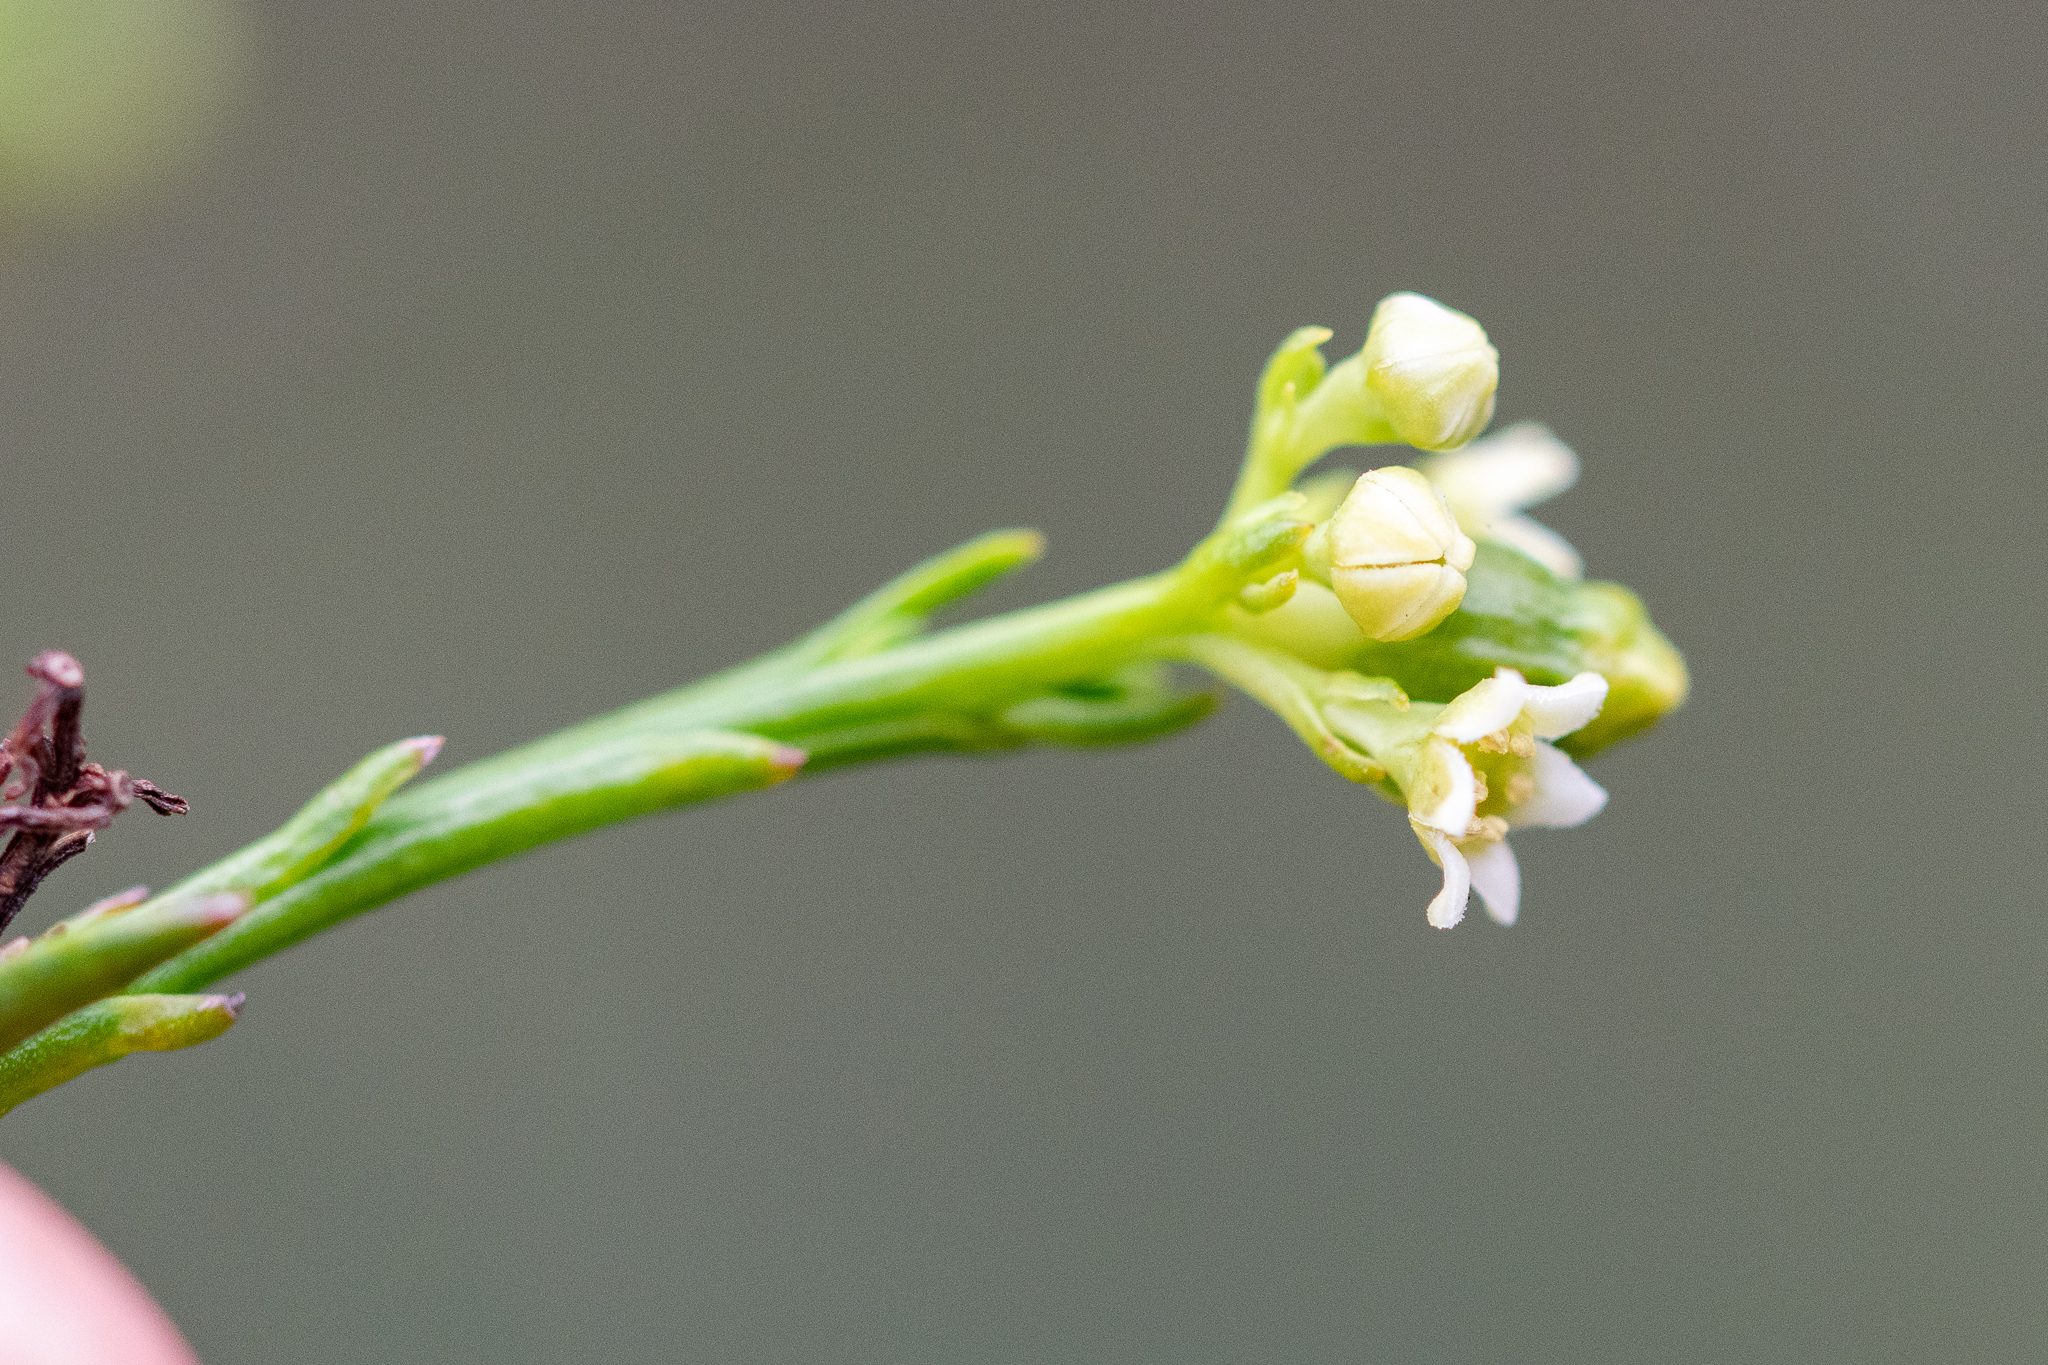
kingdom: Plantae
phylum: Tracheophyta
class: Magnoliopsida
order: Santalales
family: Thesiaceae
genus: Thesium
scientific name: Thesium strictum
